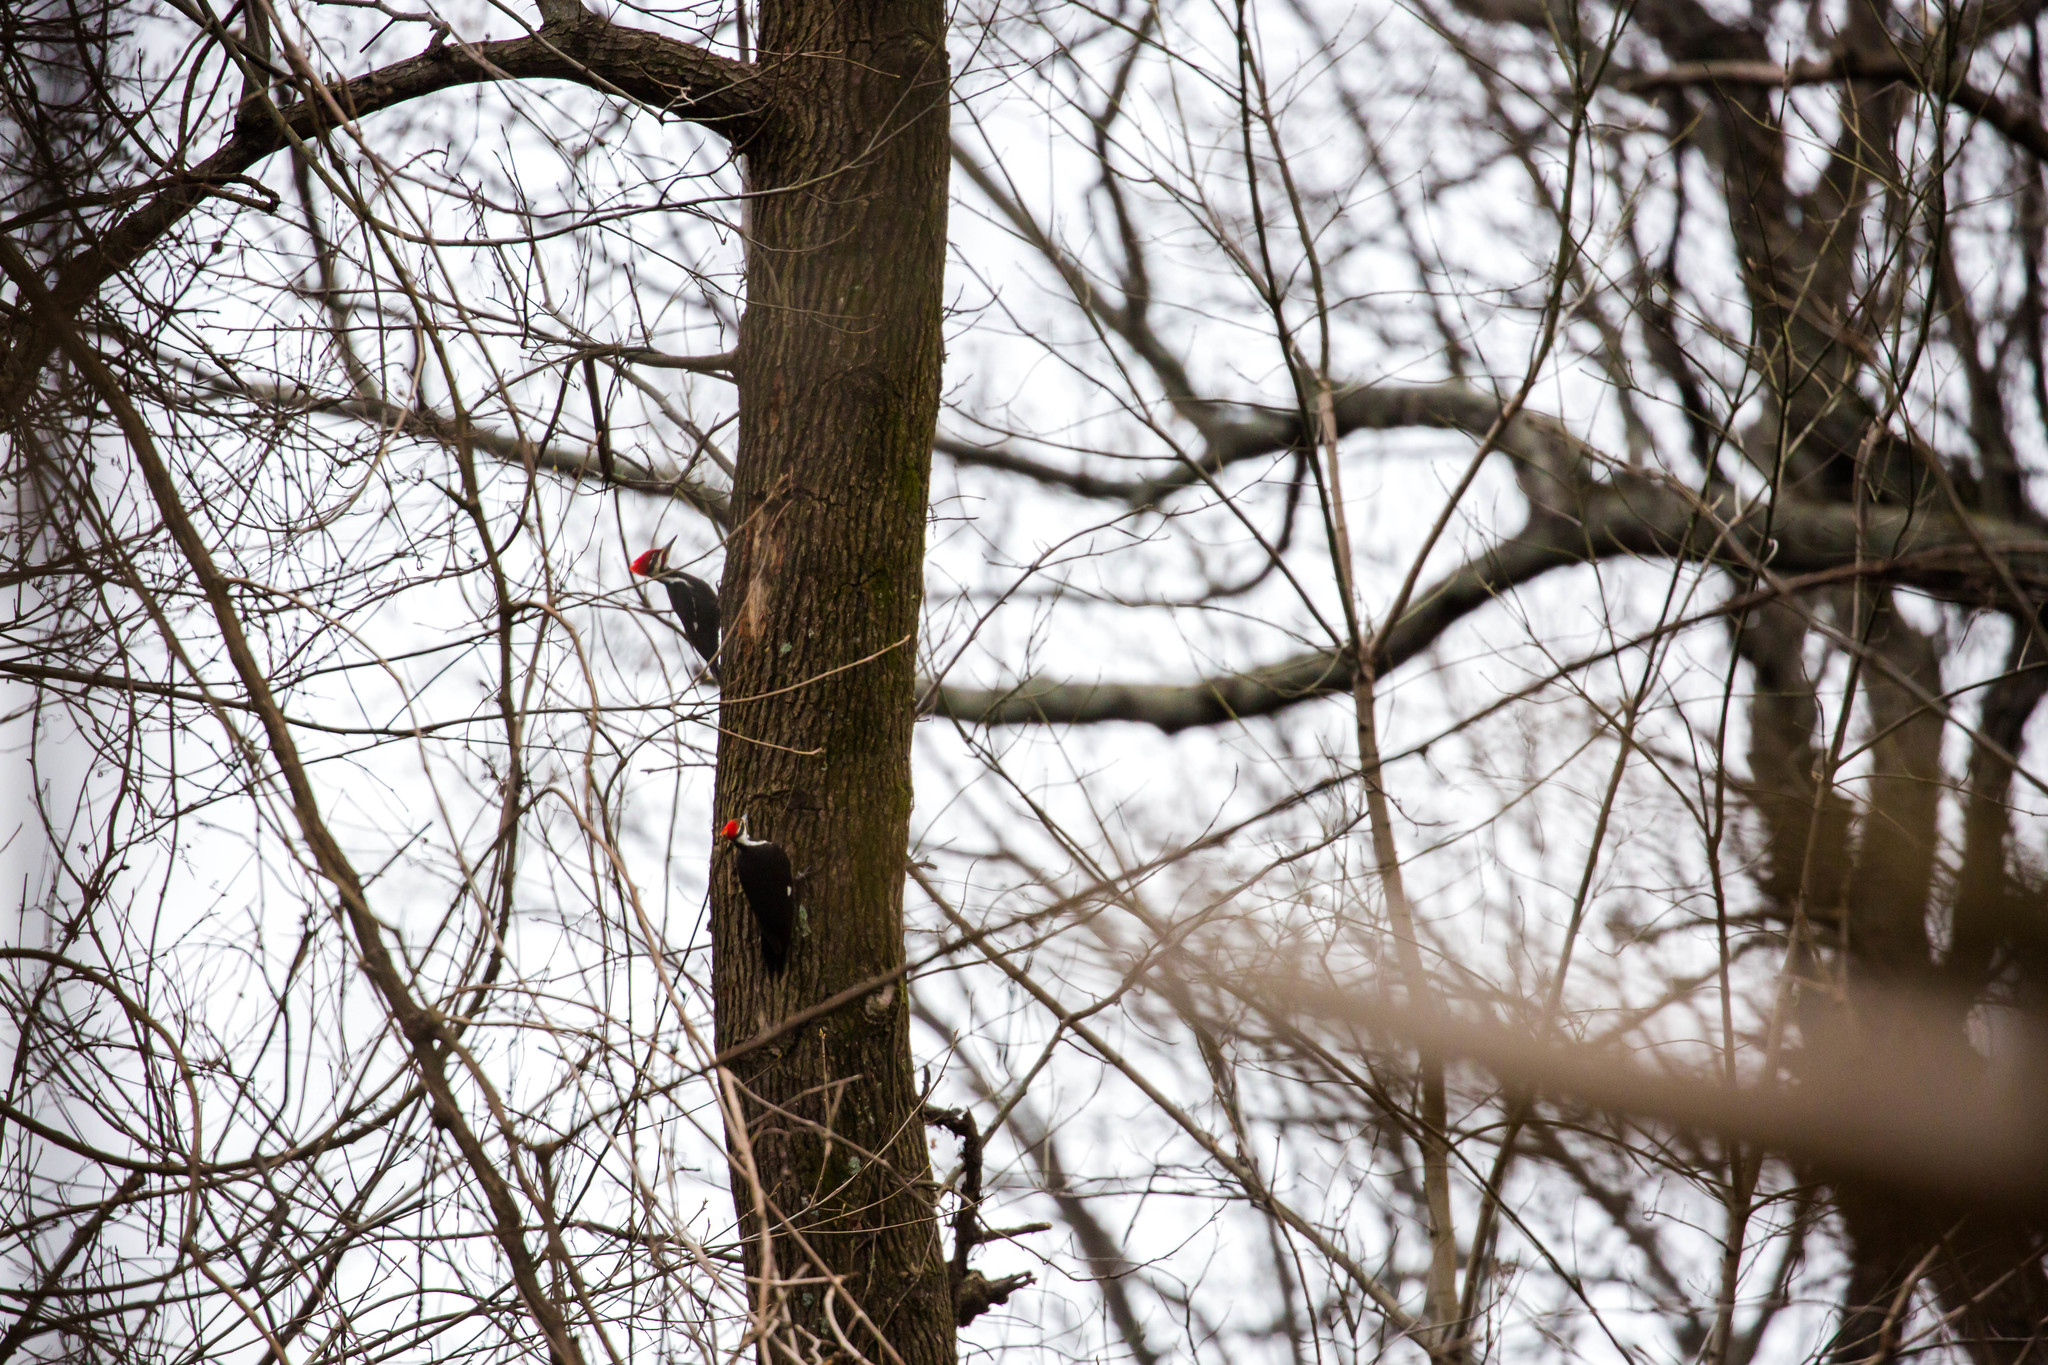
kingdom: Animalia
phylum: Chordata
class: Aves
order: Piciformes
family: Picidae
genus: Dryocopus
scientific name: Dryocopus pileatus
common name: Pileated woodpecker
